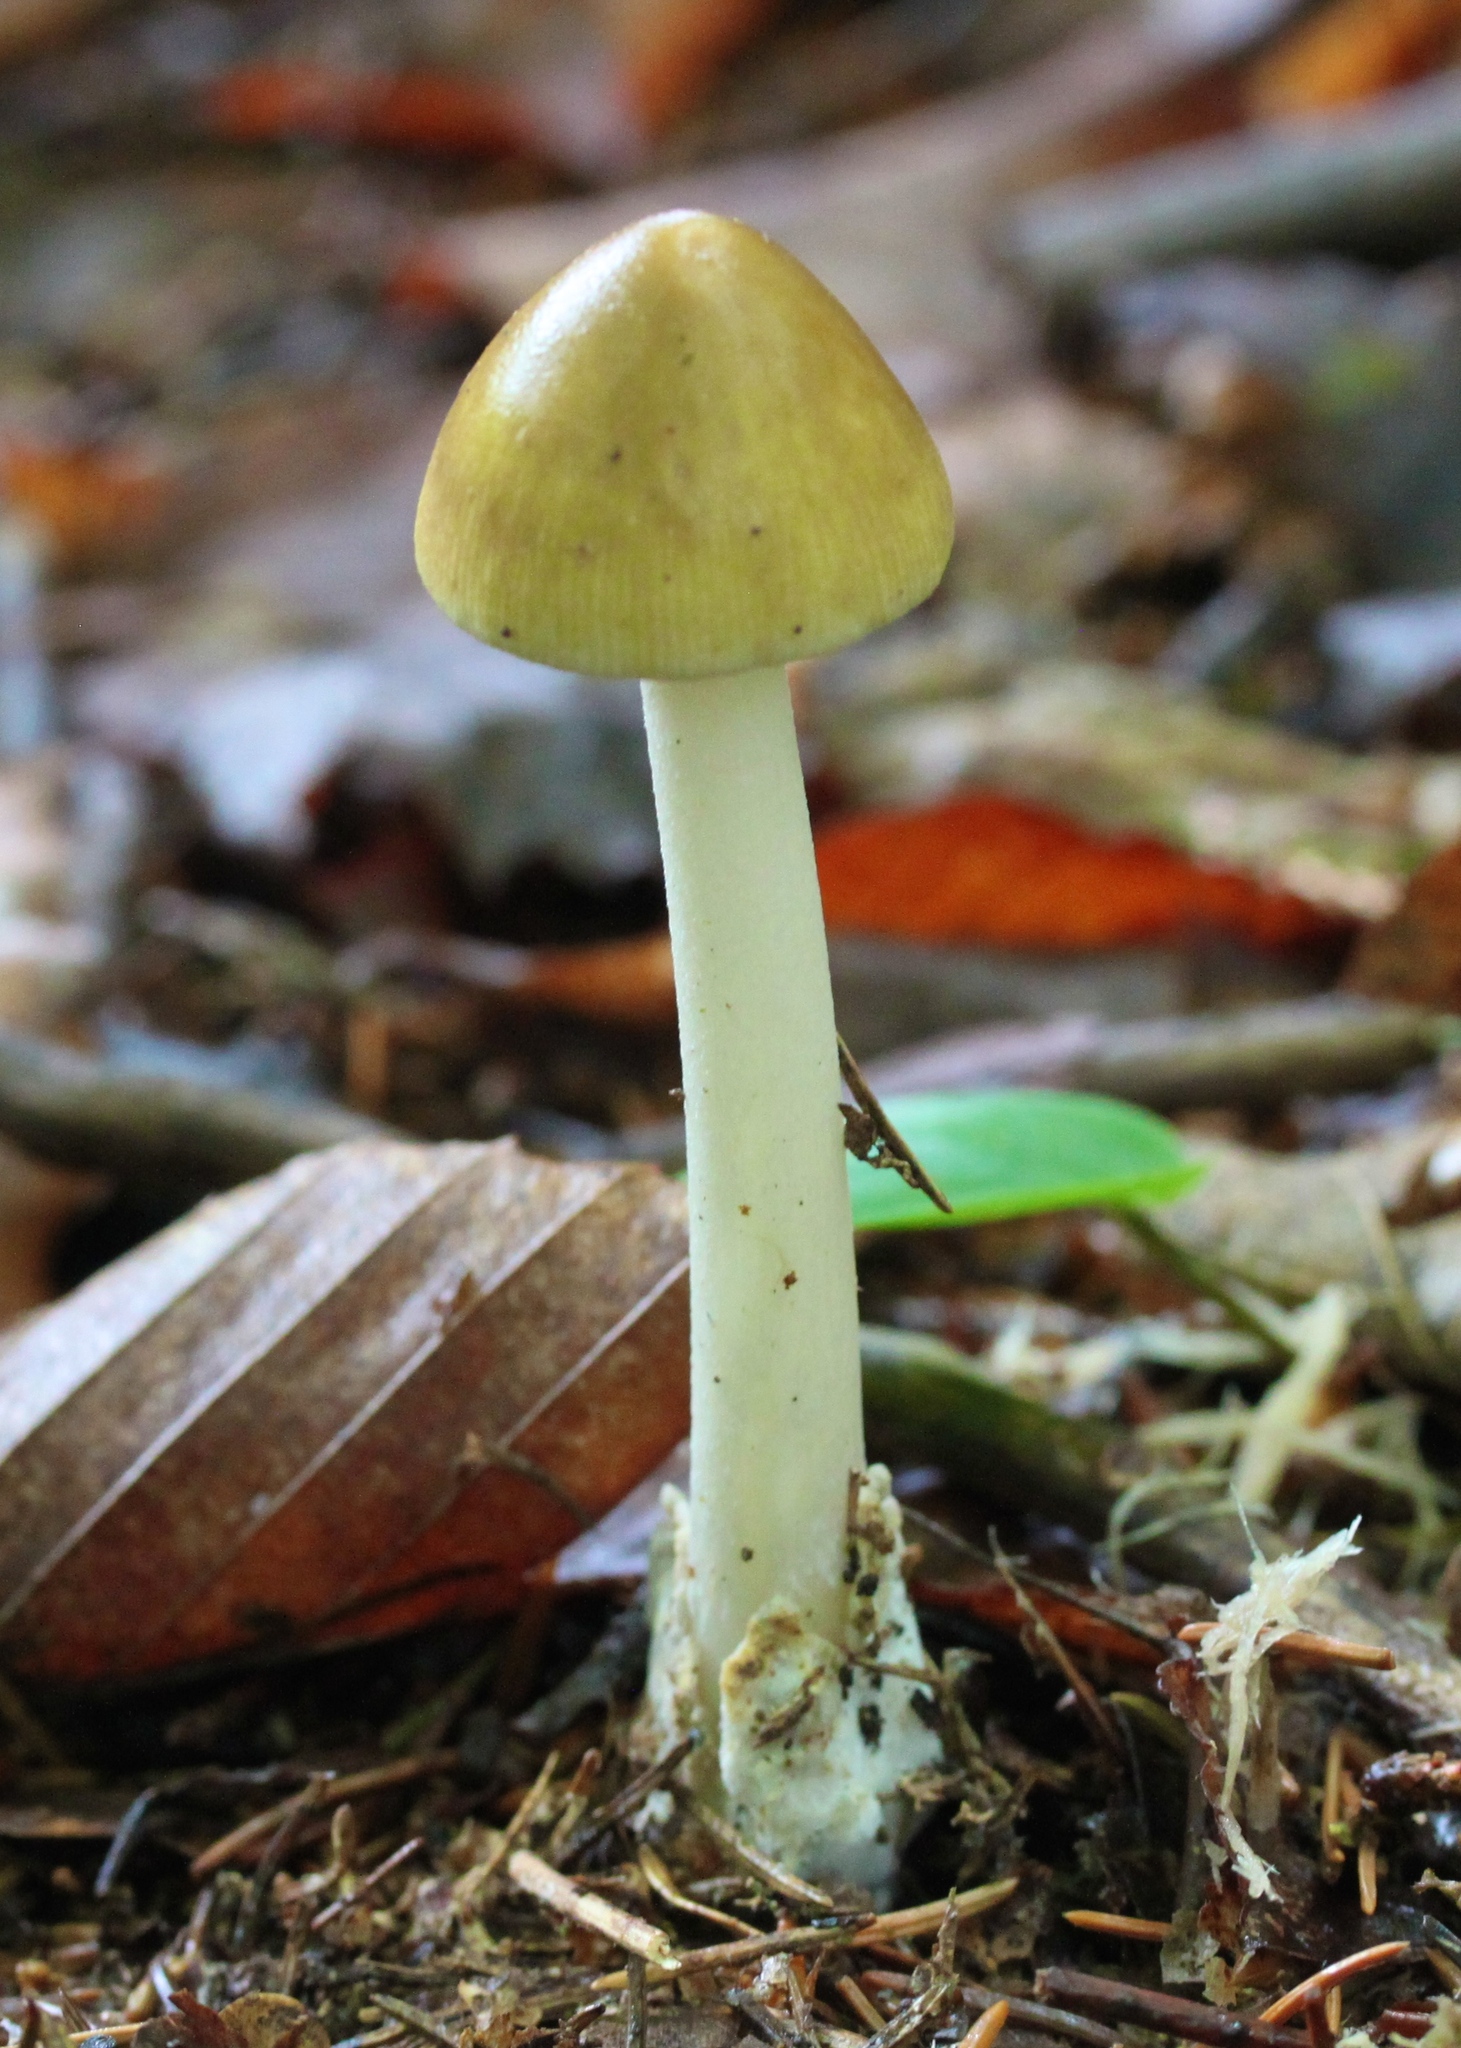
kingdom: Fungi
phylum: Basidiomycota
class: Agaricomycetes
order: Agaricales
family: Amanitaceae
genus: Amanita
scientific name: Amanita fulva
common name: Tawny grisette
